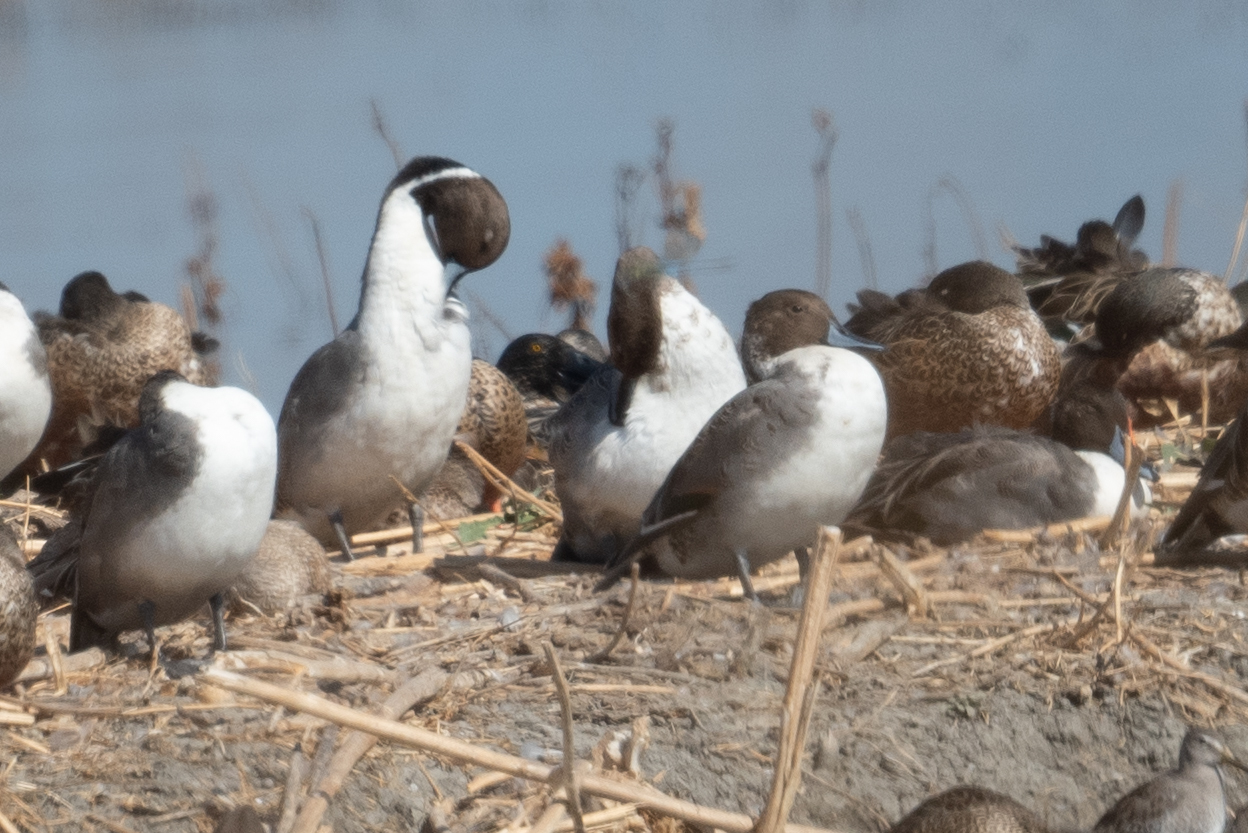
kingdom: Animalia
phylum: Chordata
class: Aves
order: Anseriformes
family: Anatidae
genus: Anas
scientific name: Anas acuta
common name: Northern pintail
